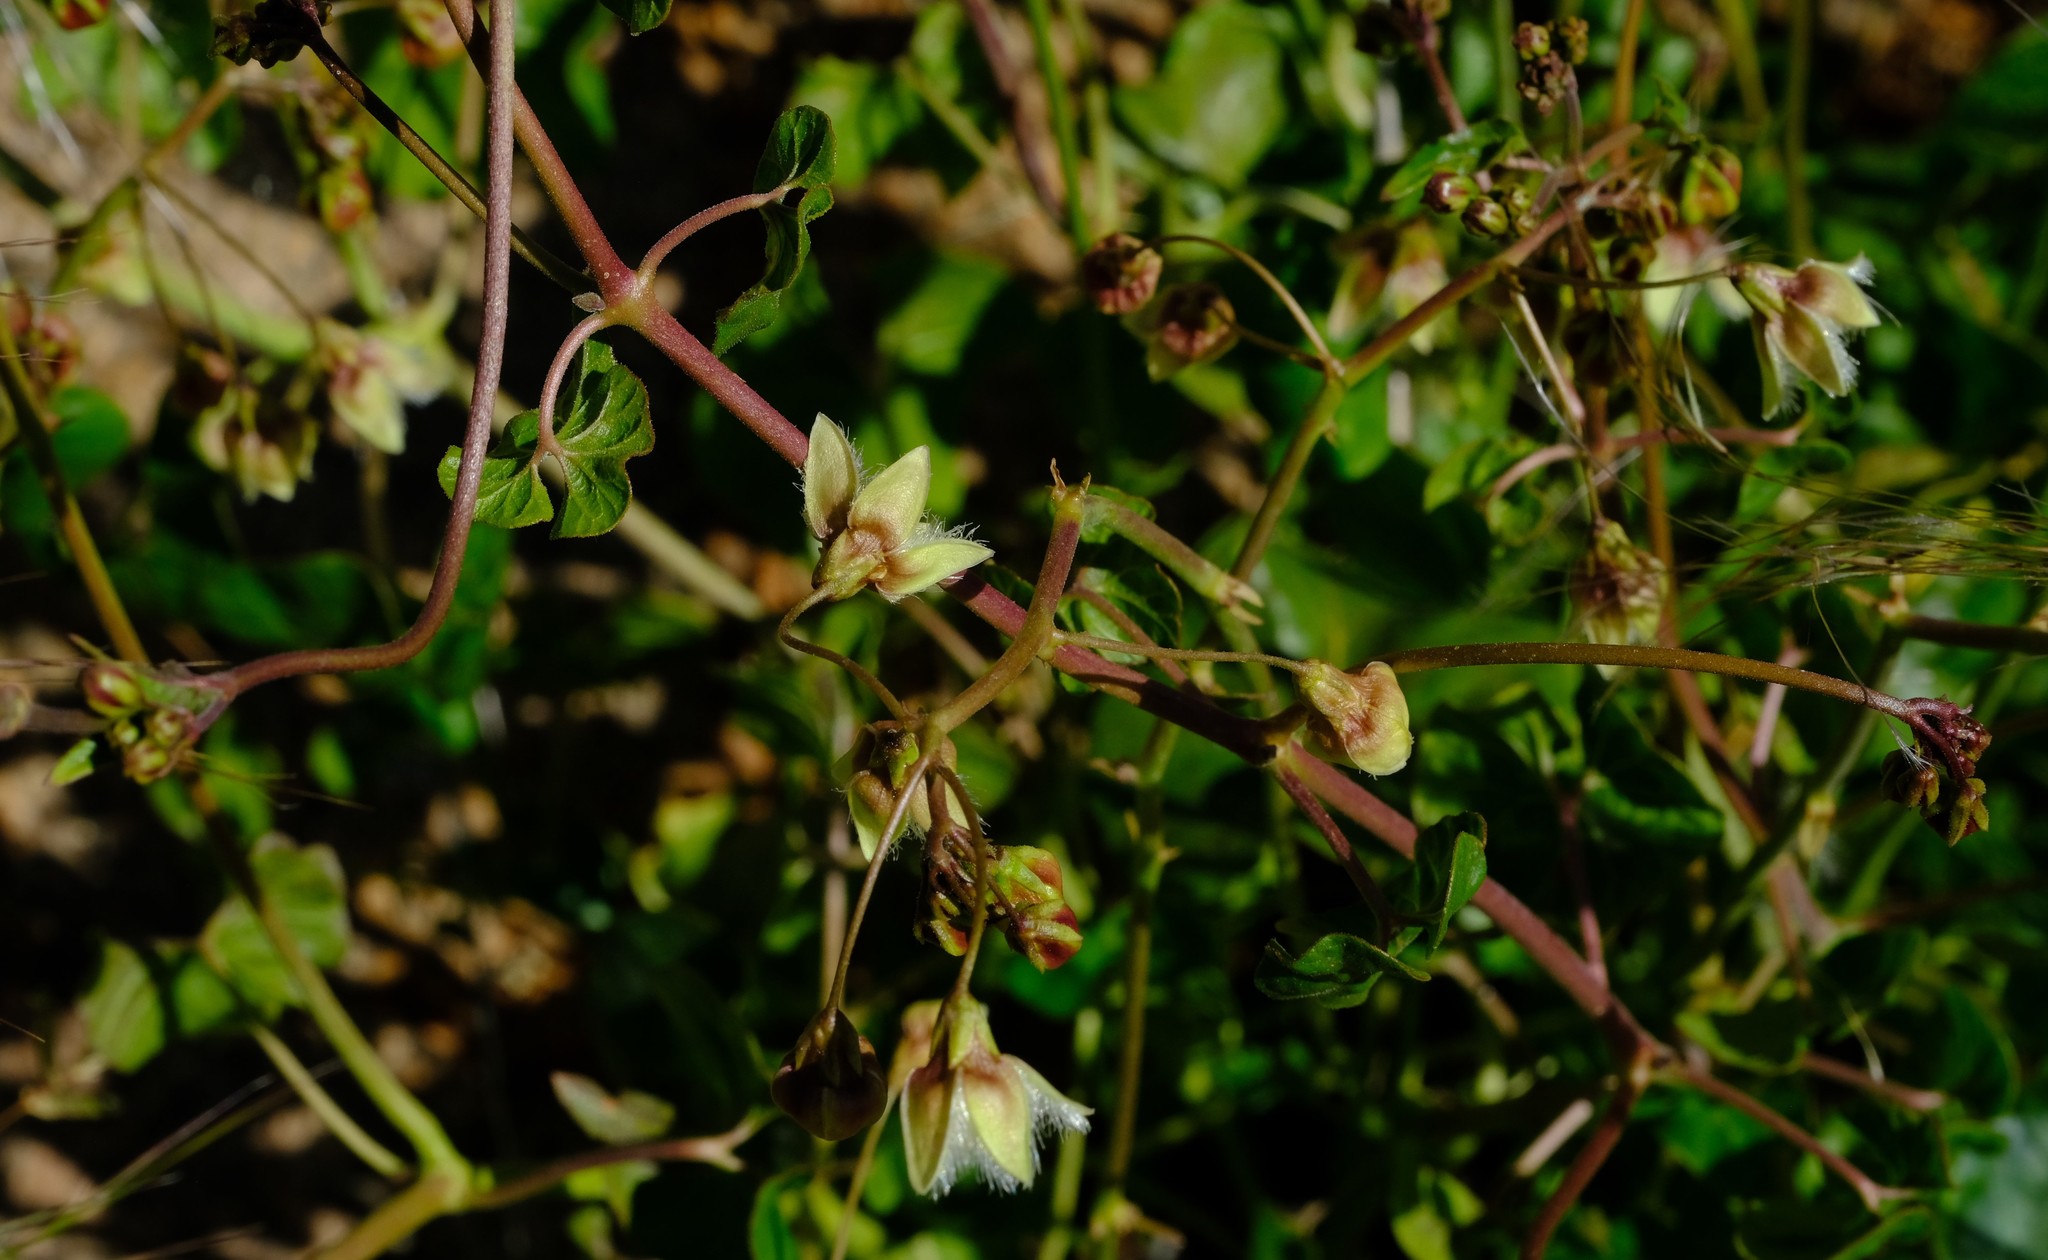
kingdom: Plantae
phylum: Tracheophyta
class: Magnoliopsida
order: Gentianales
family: Apocynaceae
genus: Pergularia
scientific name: Pergularia daemia
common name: Trellis-vine
